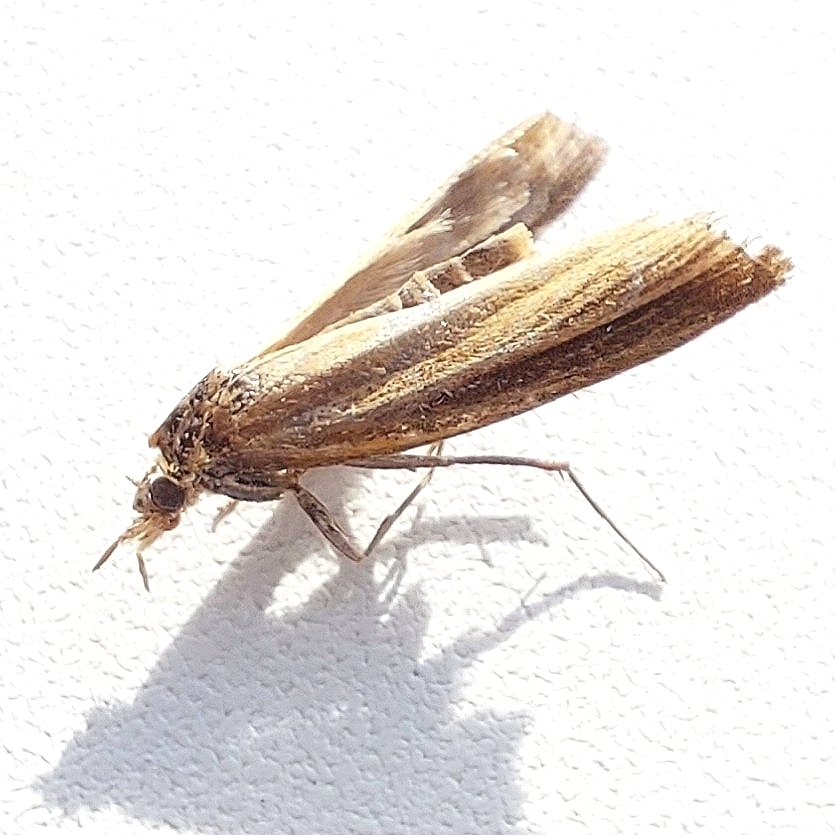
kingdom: Animalia
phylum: Arthropoda
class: Insecta
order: Lepidoptera
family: Crambidae
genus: Agriphila
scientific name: Agriphila tristellus
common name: Common grass-veneer
